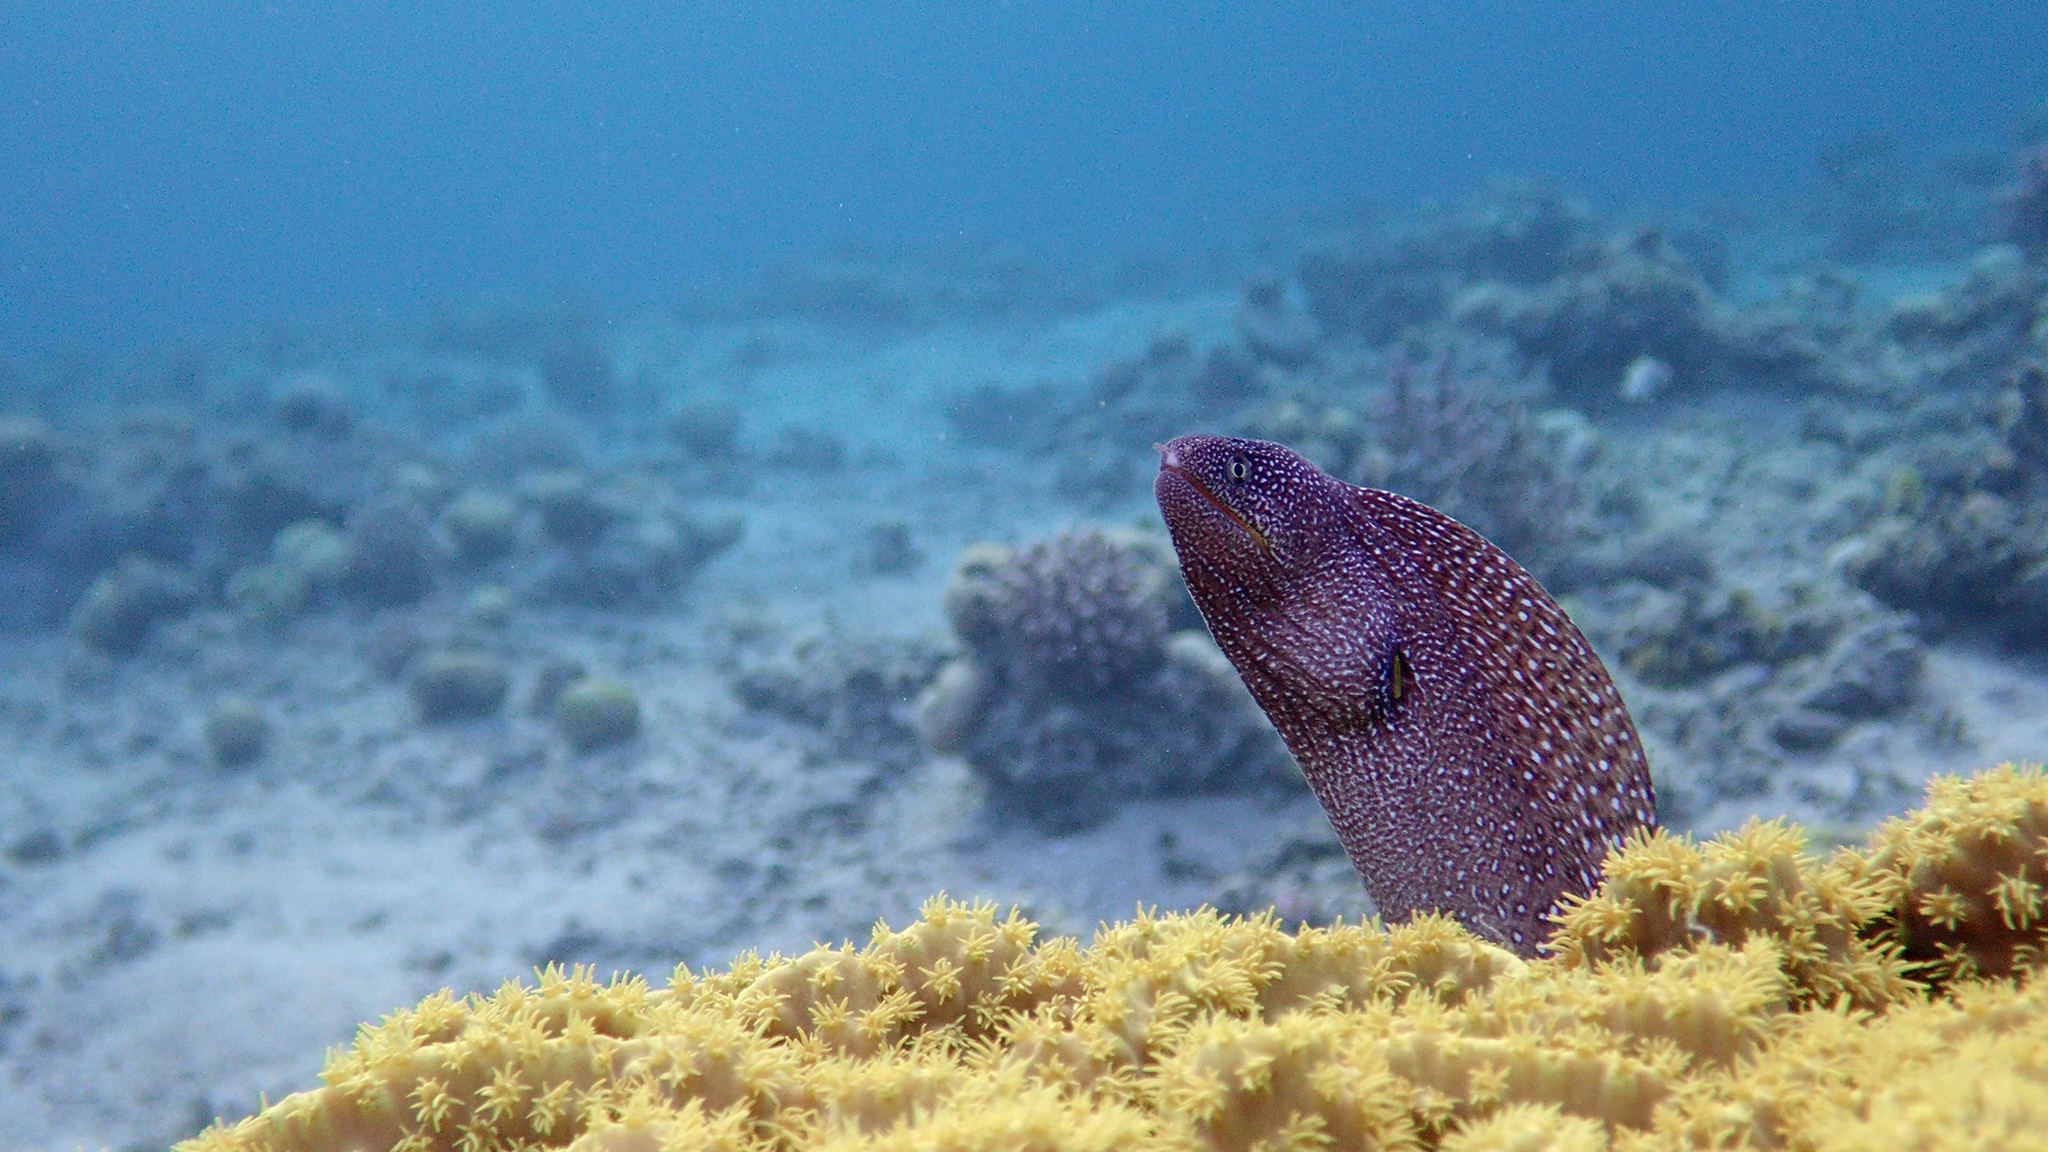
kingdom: Animalia
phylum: Chordata
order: Anguilliformes
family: Muraenidae
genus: Gymnothorax
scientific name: Gymnothorax nudivomer
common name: Yellowmouth moray
